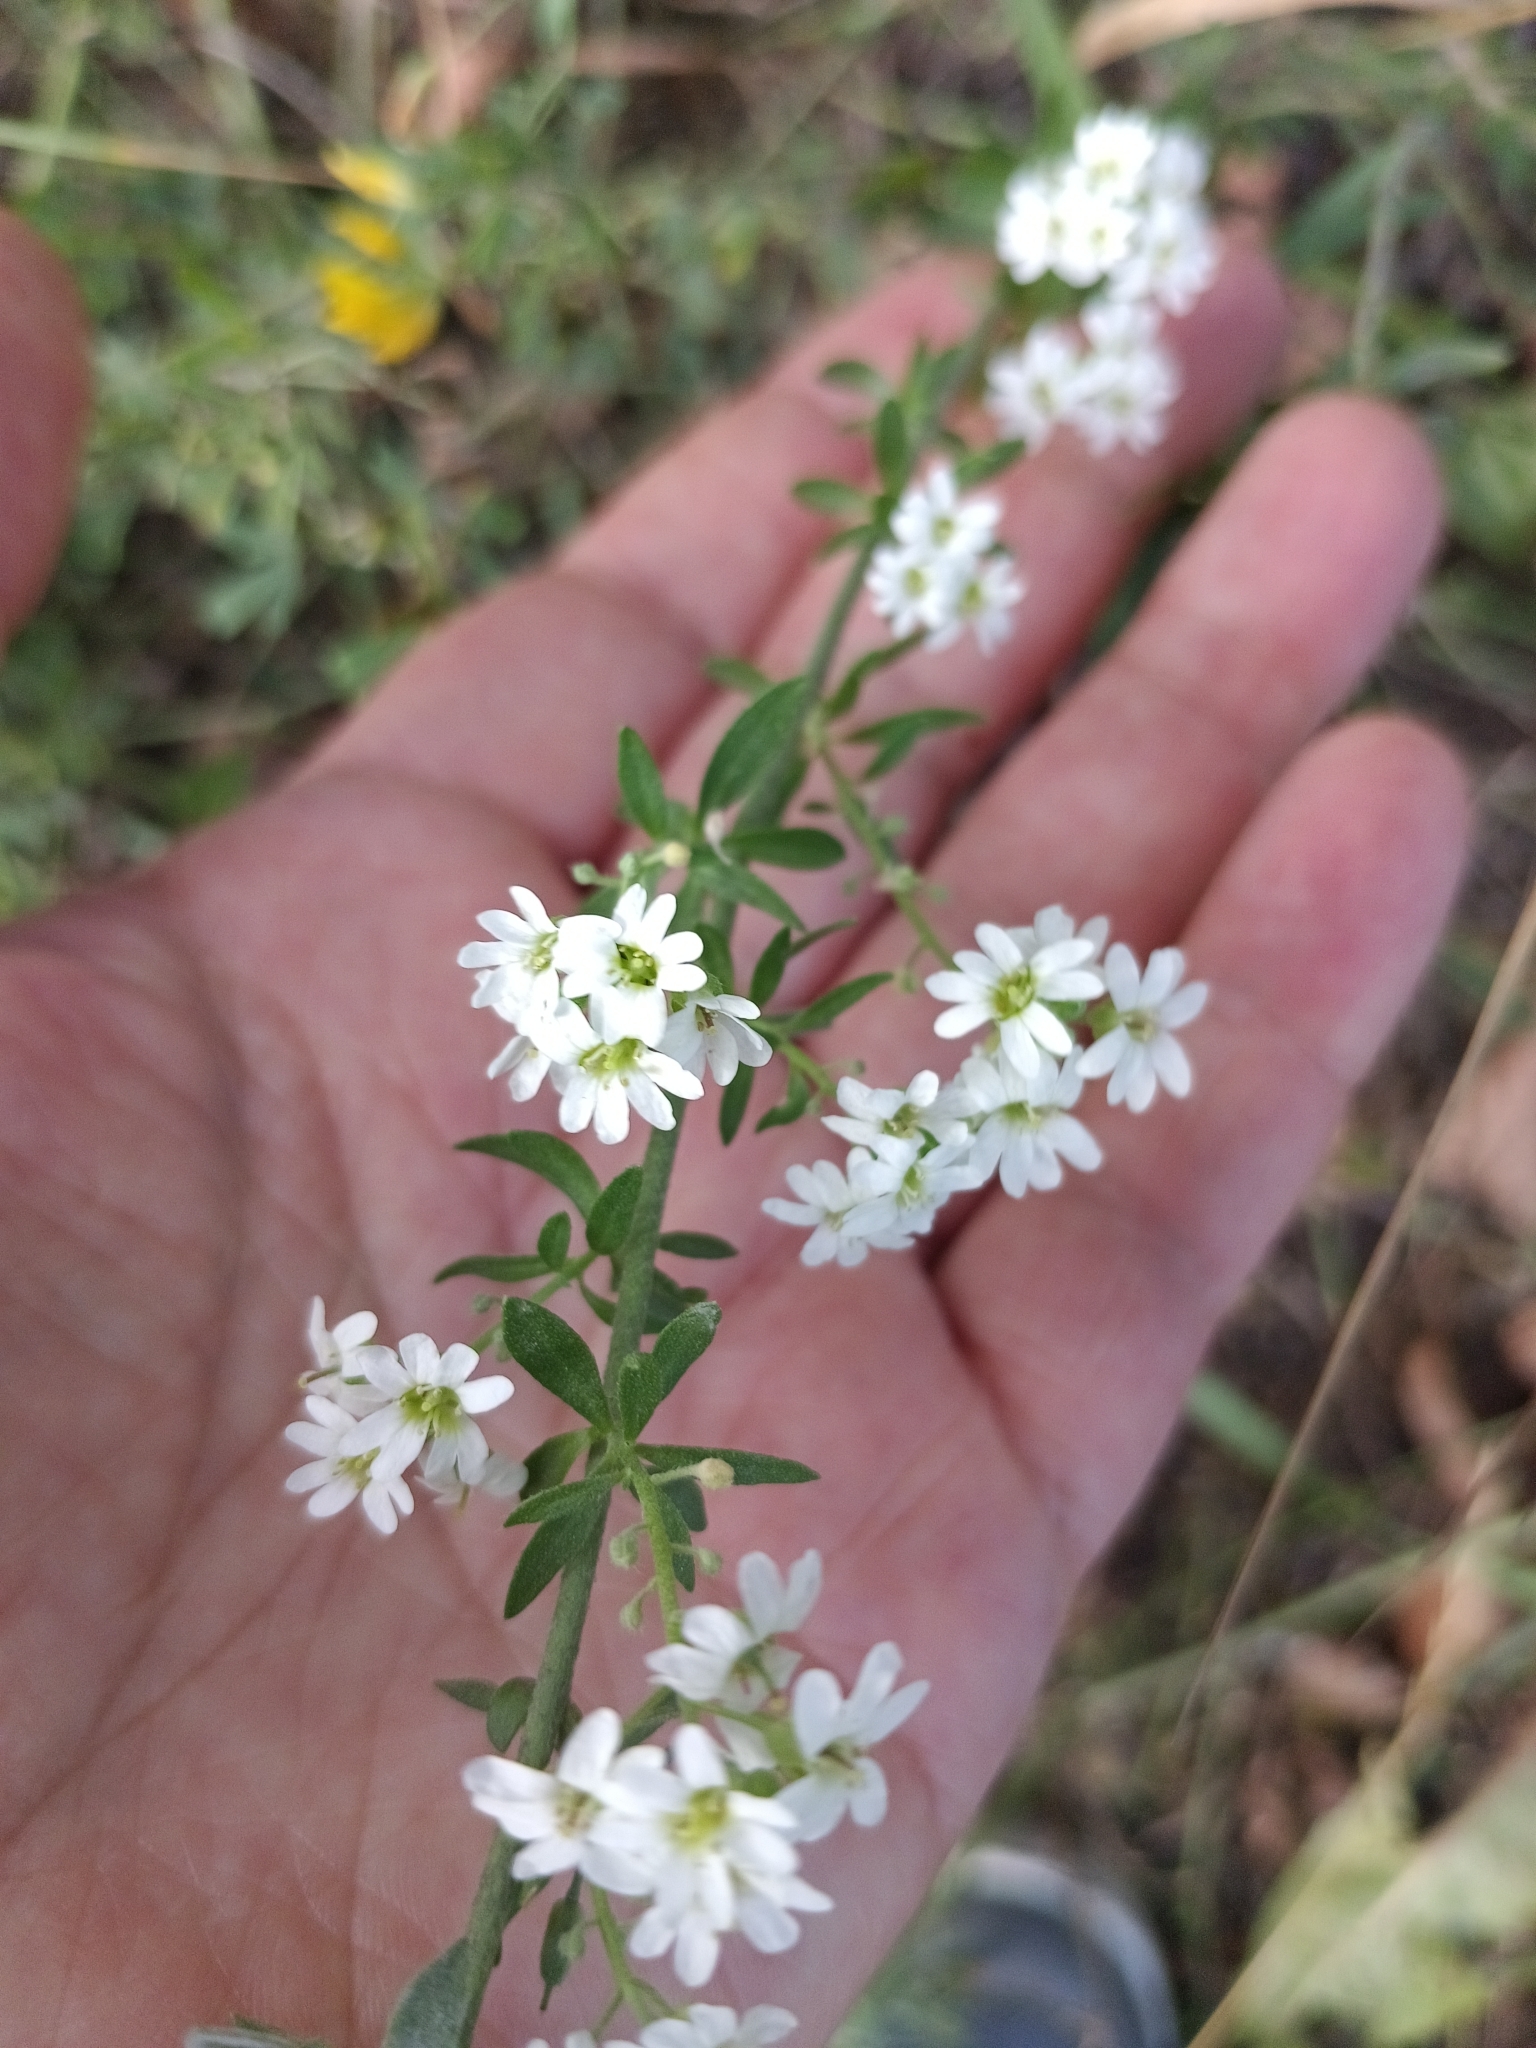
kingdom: Plantae
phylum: Tracheophyta
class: Magnoliopsida
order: Brassicales
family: Brassicaceae
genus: Berteroa
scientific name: Berteroa incana
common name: Hoary alison
